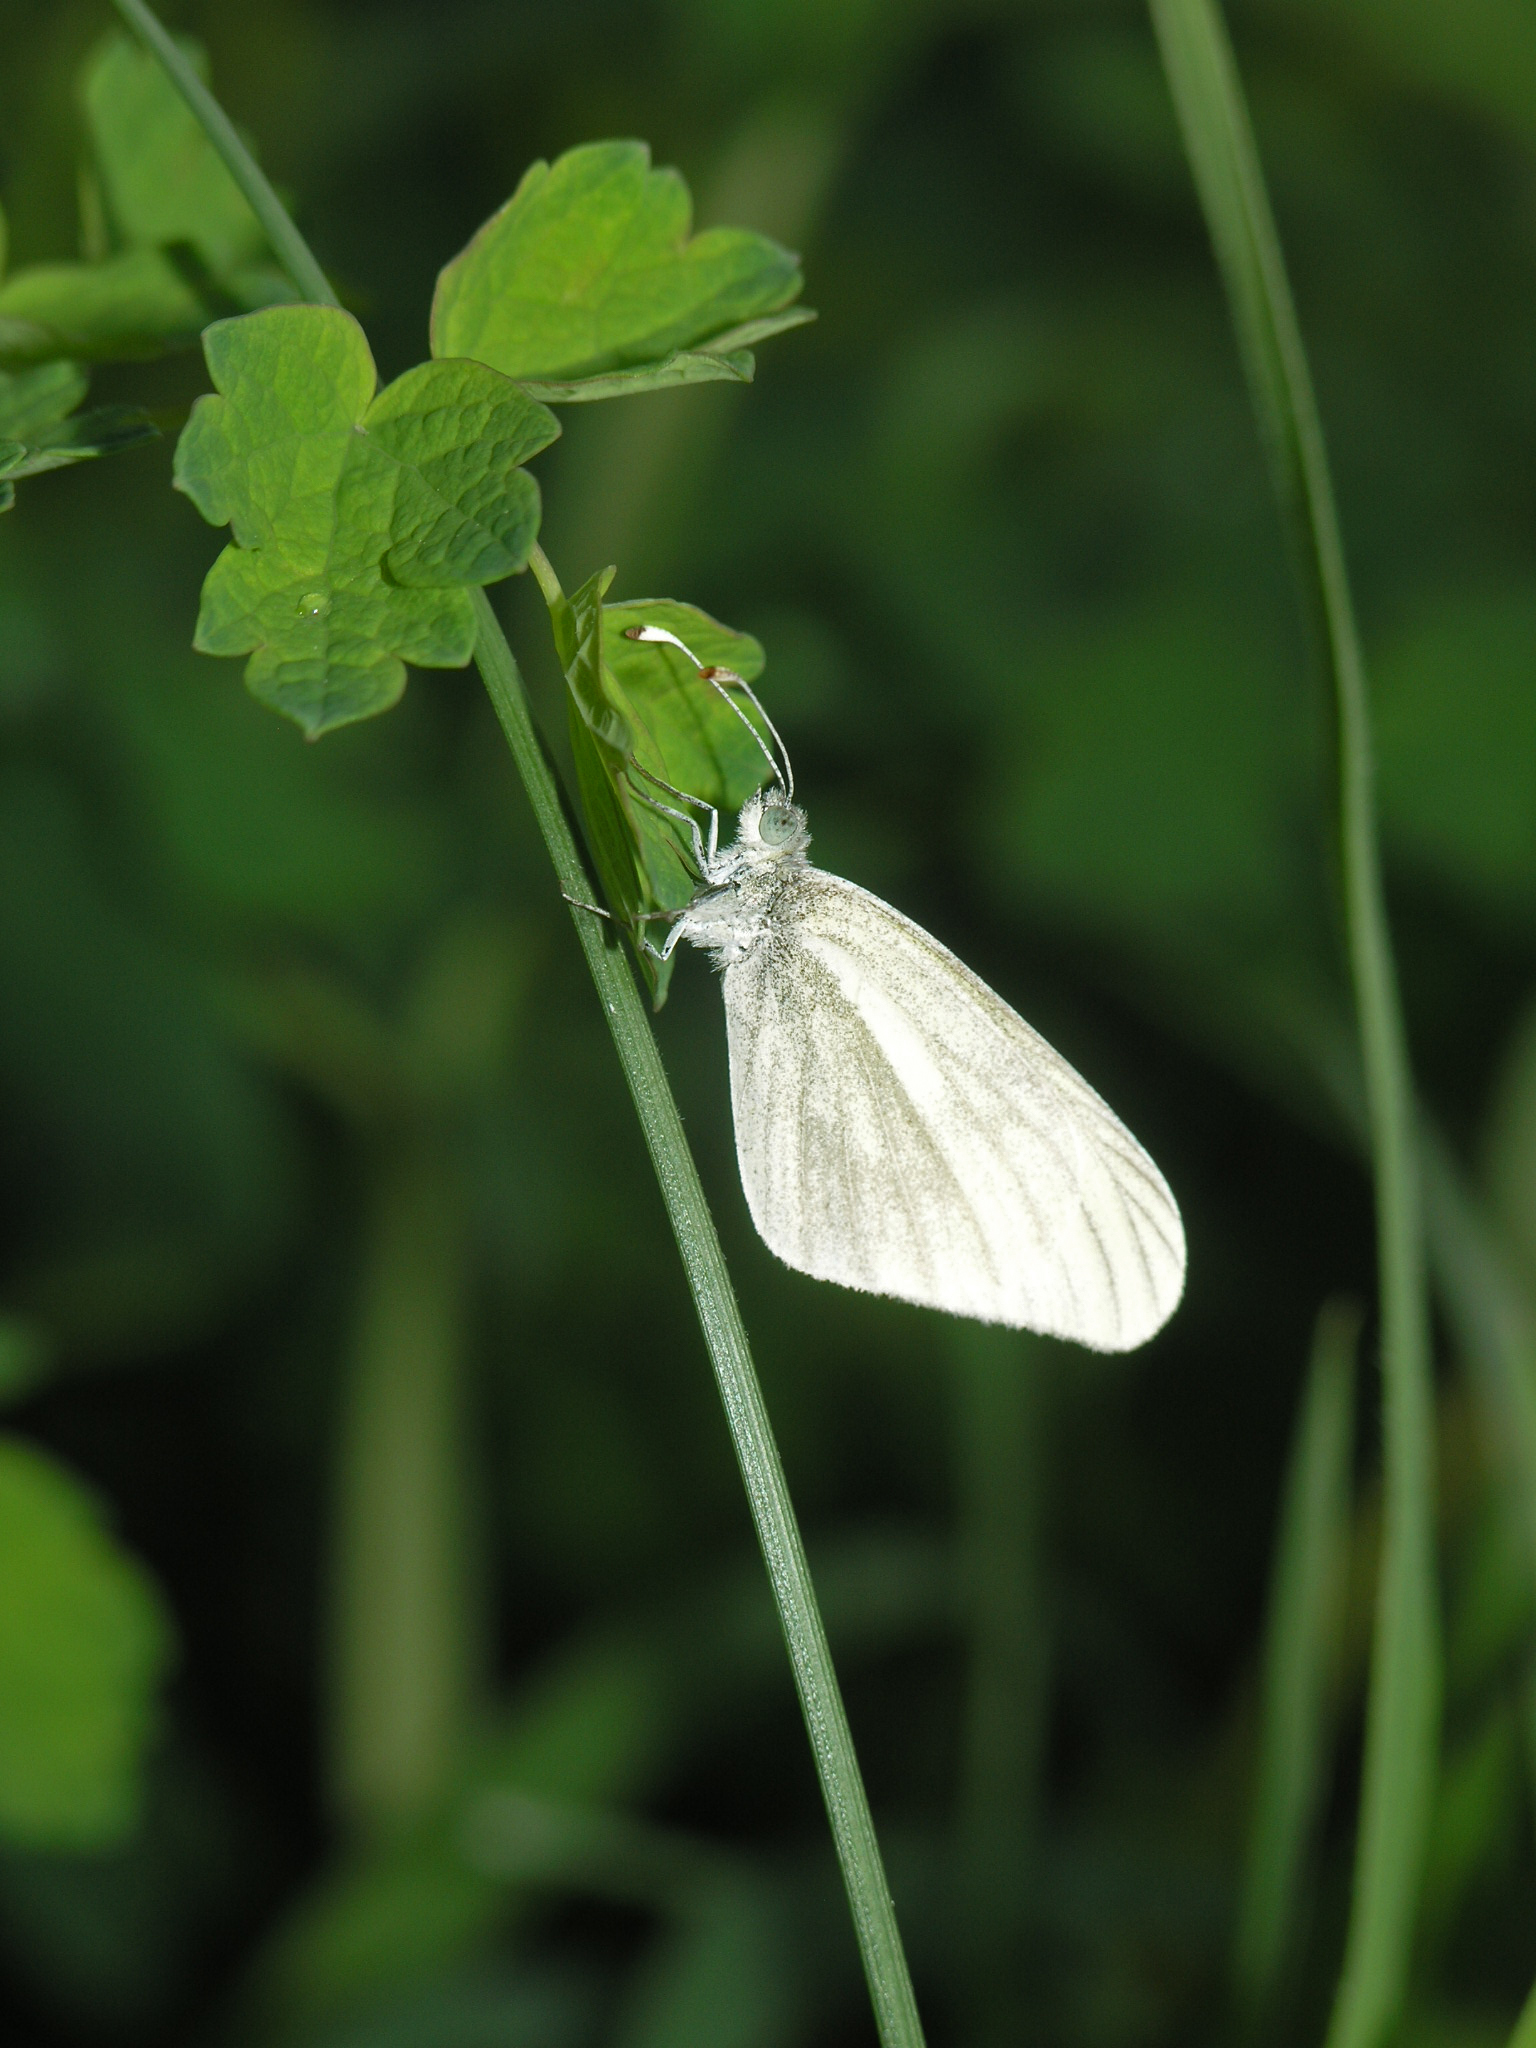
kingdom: Animalia
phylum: Arthropoda
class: Insecta
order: Lepidoptera
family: Pieridae
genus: Leptidea
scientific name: Leptidea amurensis
